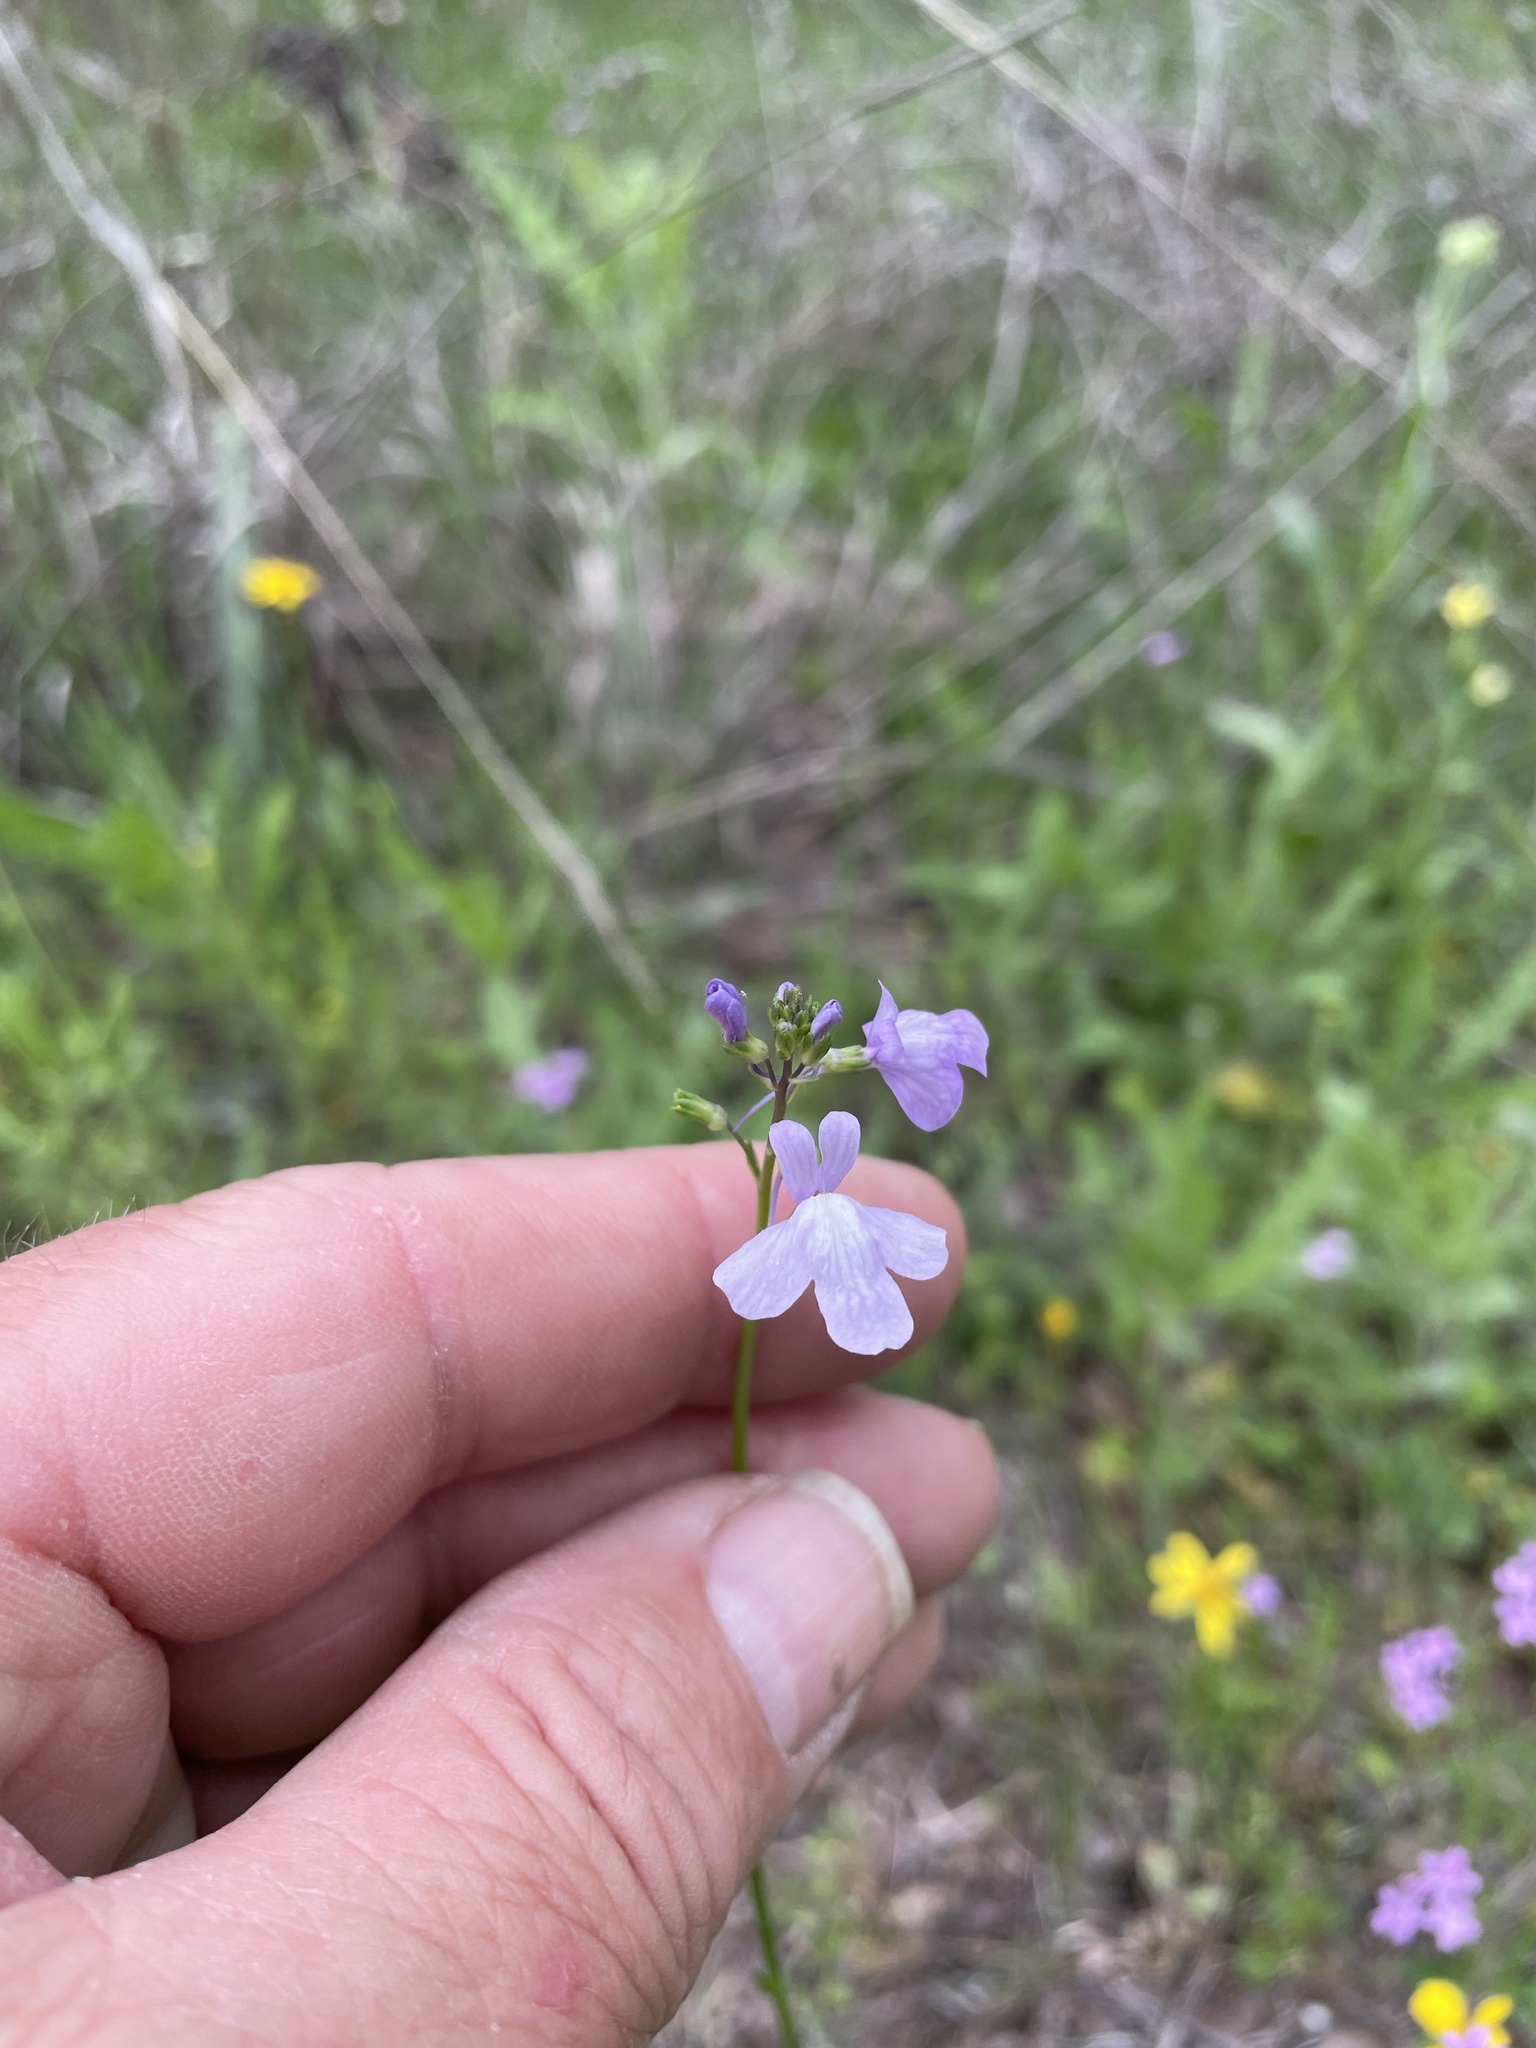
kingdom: Plantae
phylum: Tracheophyta
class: Magnoliopsida
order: Lamiales
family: Plantaginaceae
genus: Nuttallanthus
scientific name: Nuttallanthus texanus
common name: Texas toadflax
